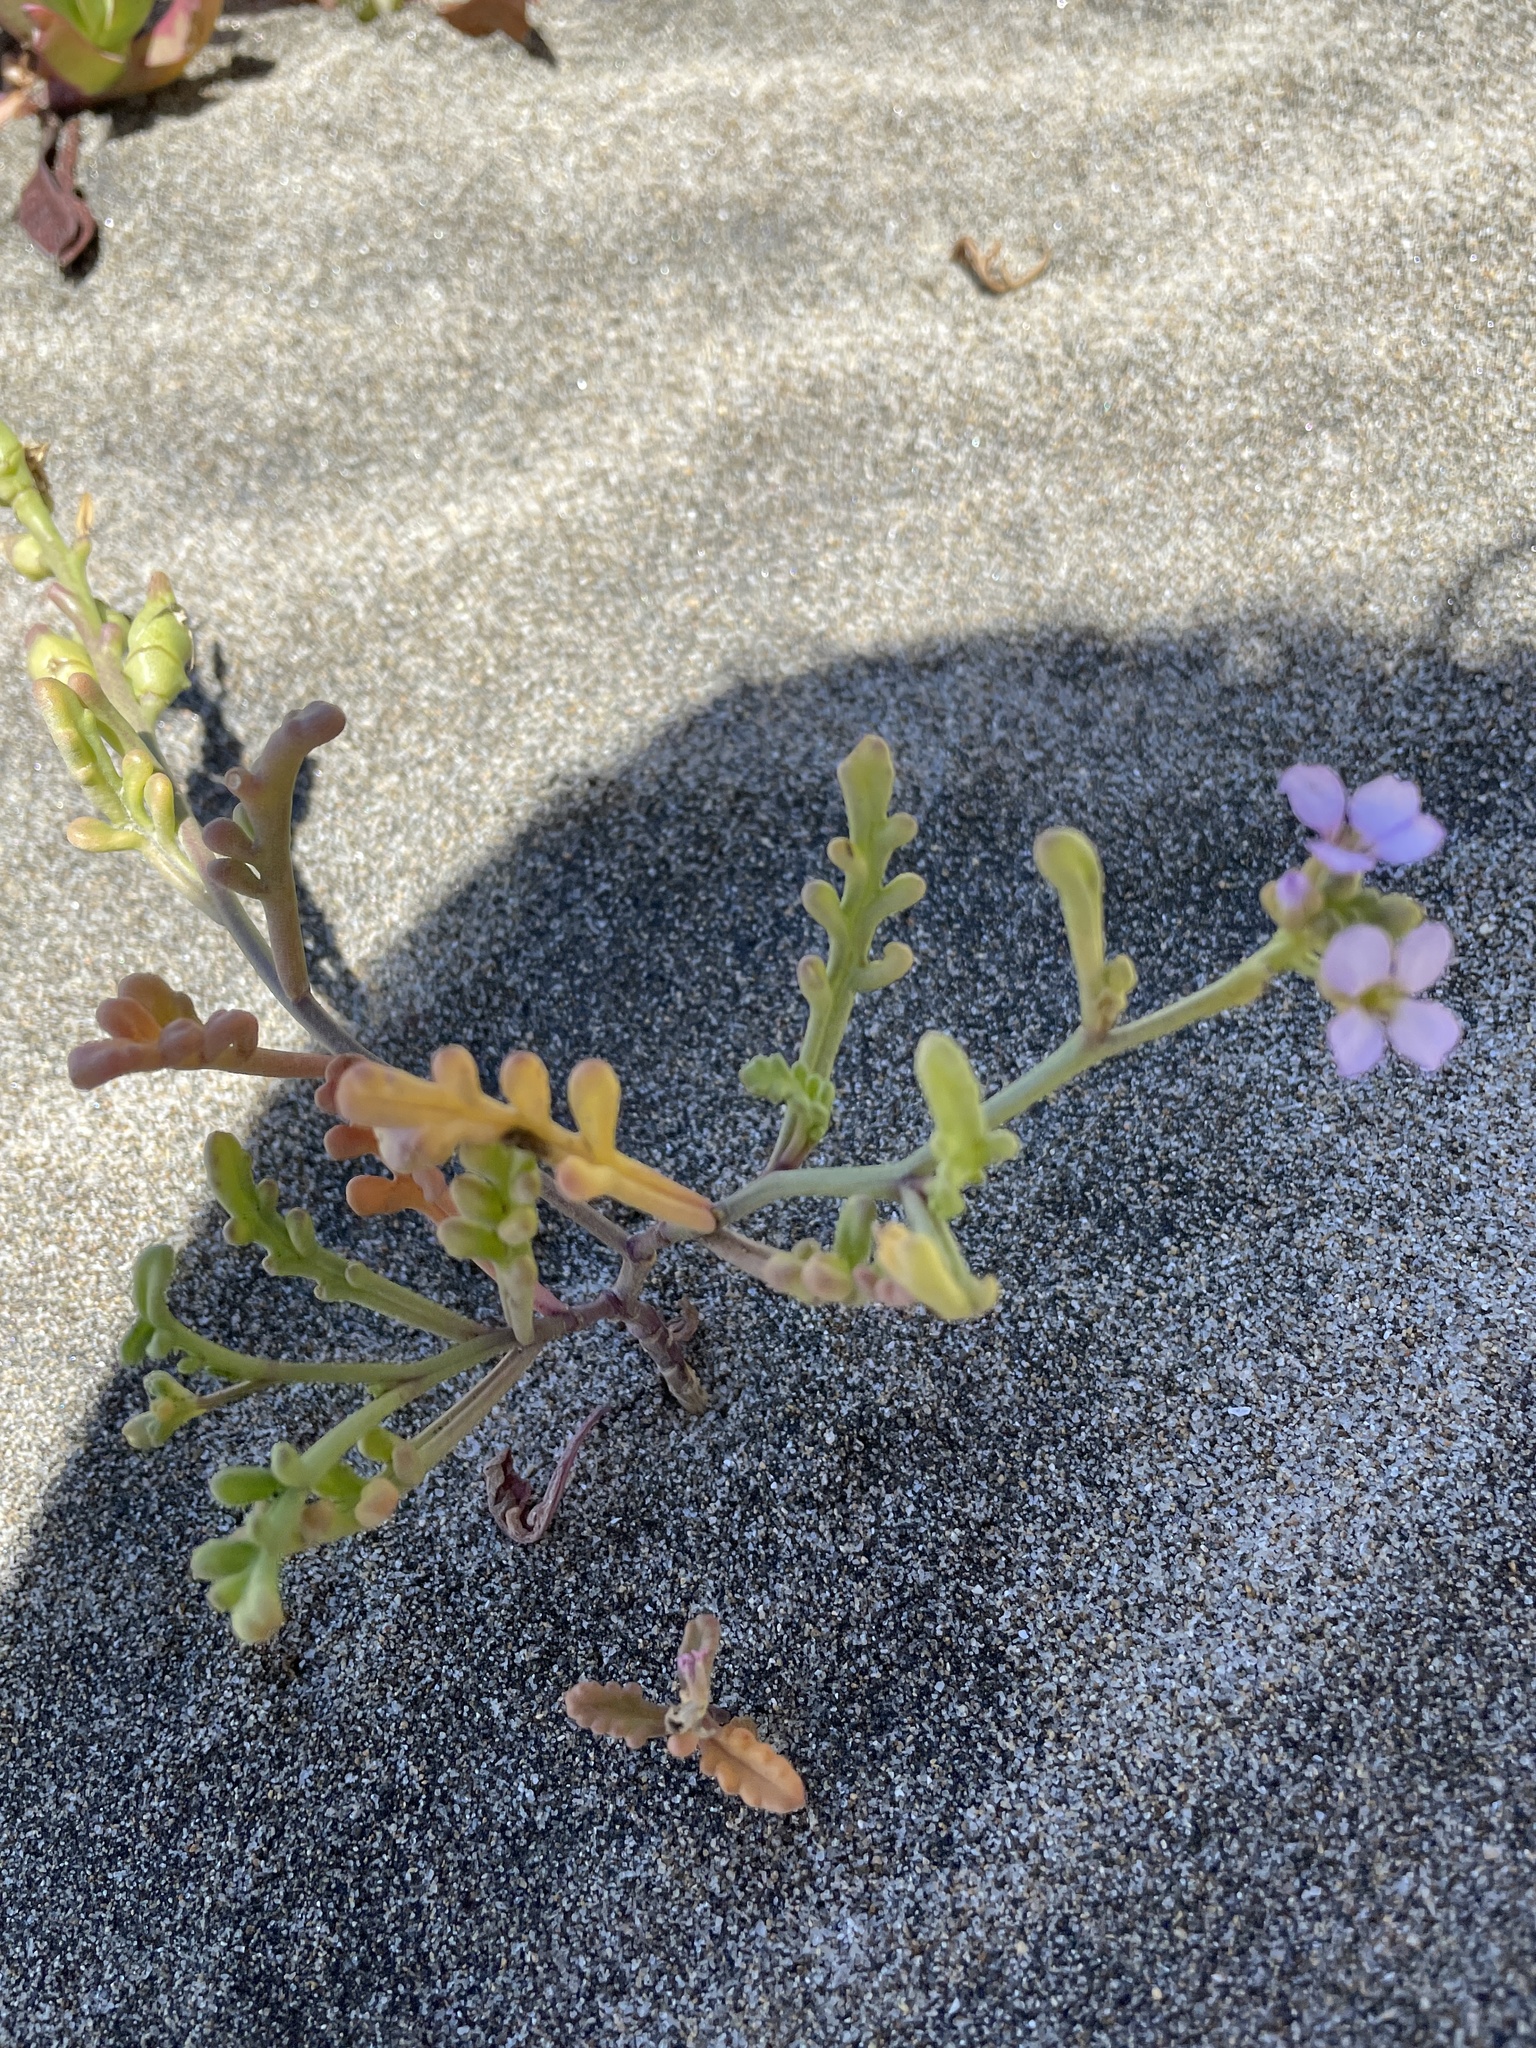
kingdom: Plantae
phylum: Tracheophyta
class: Magnoliopsida
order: Brassicales
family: Brassicaceae
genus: Cakile
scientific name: Cakile maritima
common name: Sea rocket
